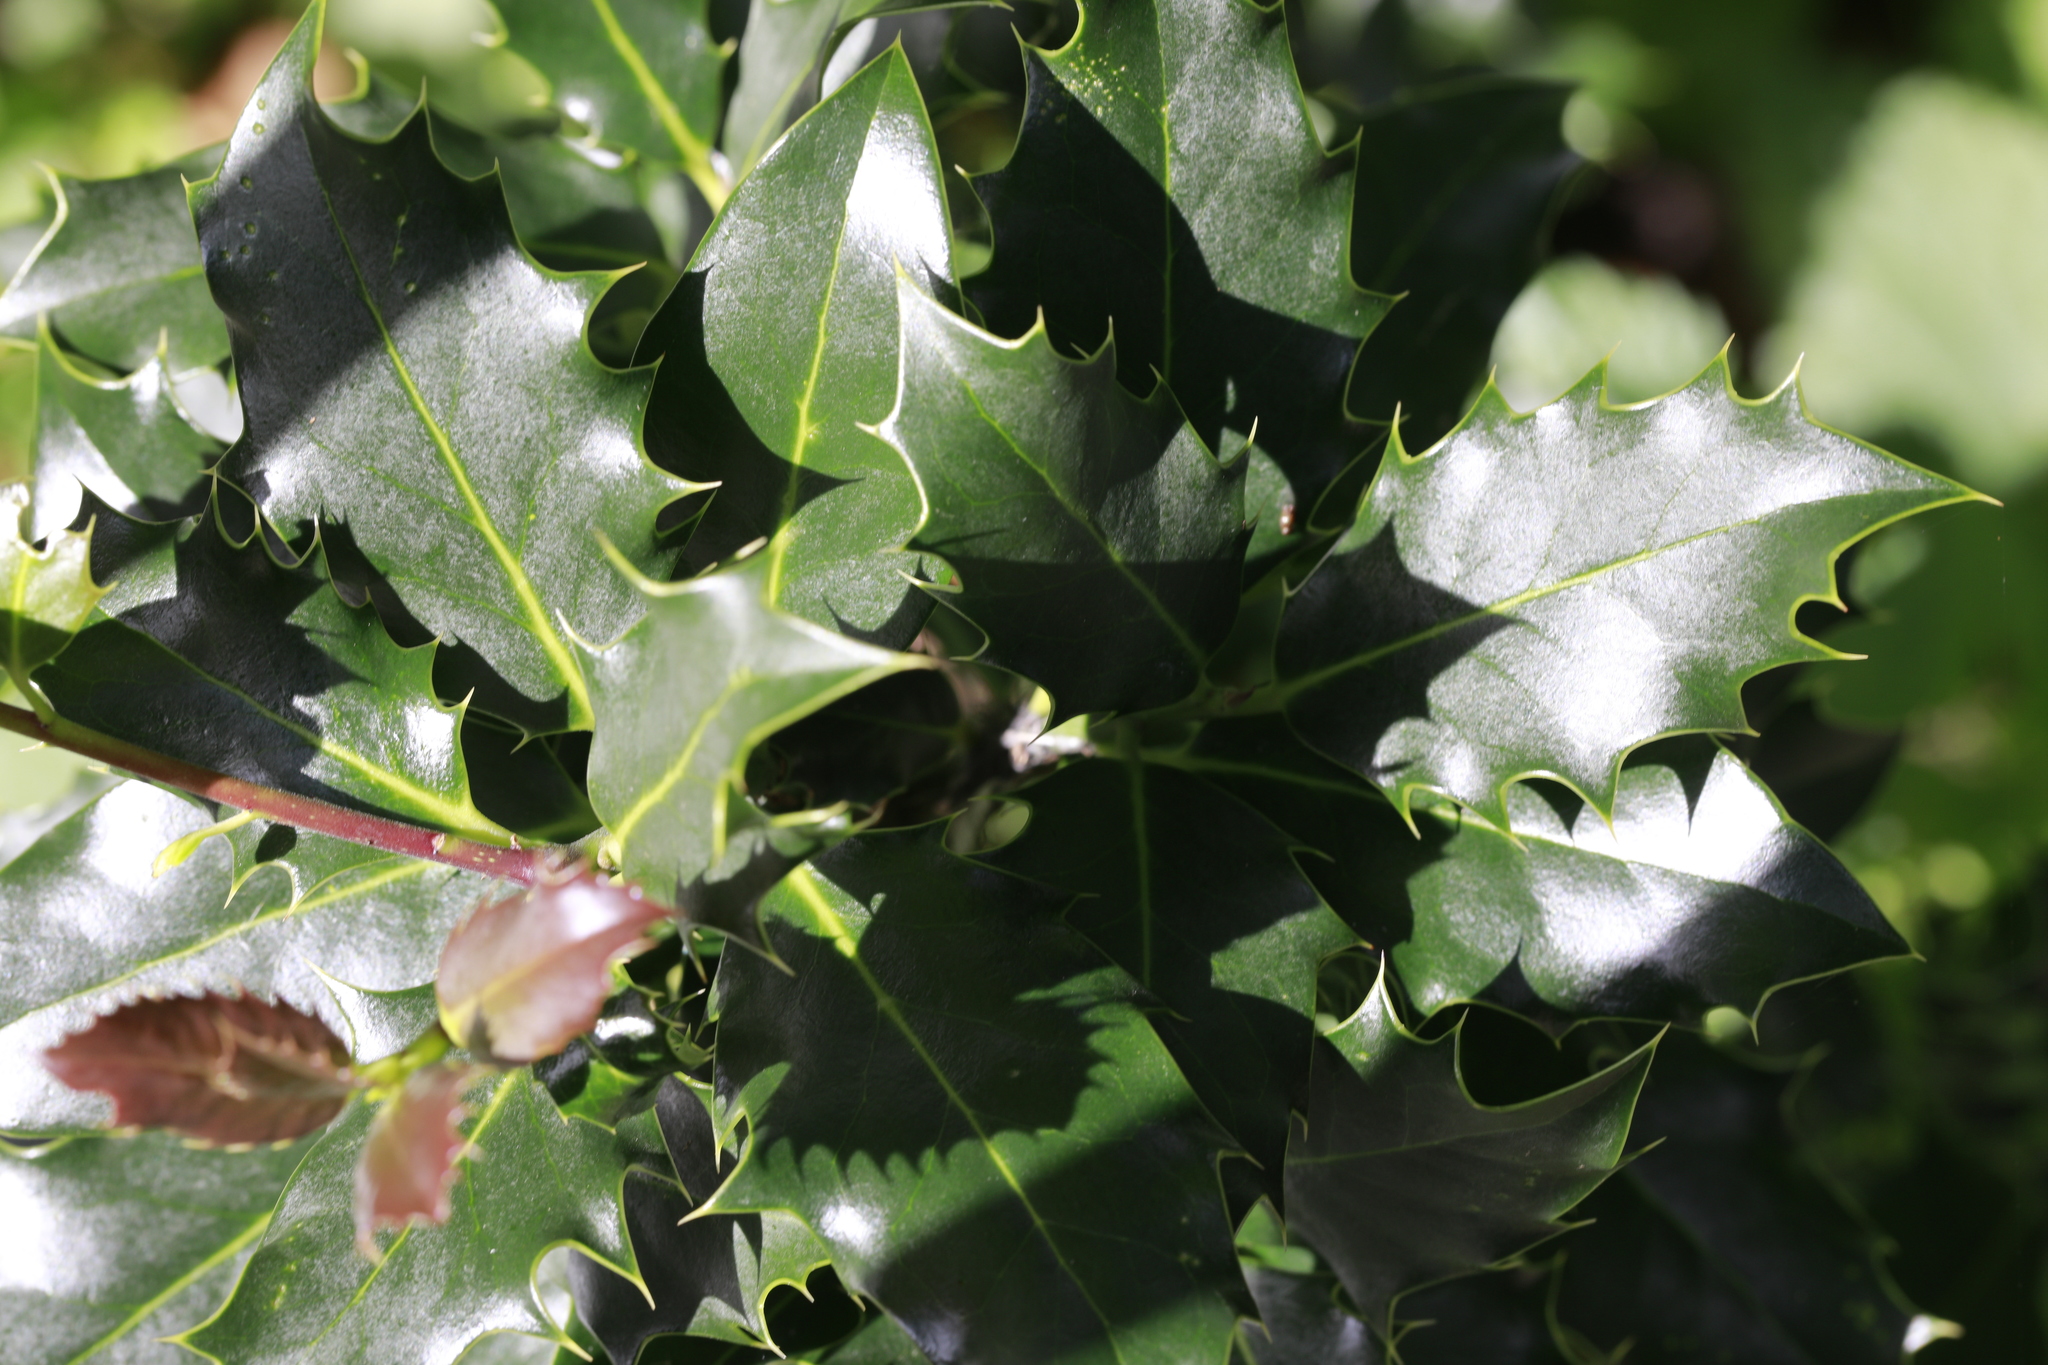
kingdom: Plantae
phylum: Tracheophyta
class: Magnoliopsida
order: Aquifoliales
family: Aquifoliaceae
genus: Ilex
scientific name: Ilex aquifolium
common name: English holly
